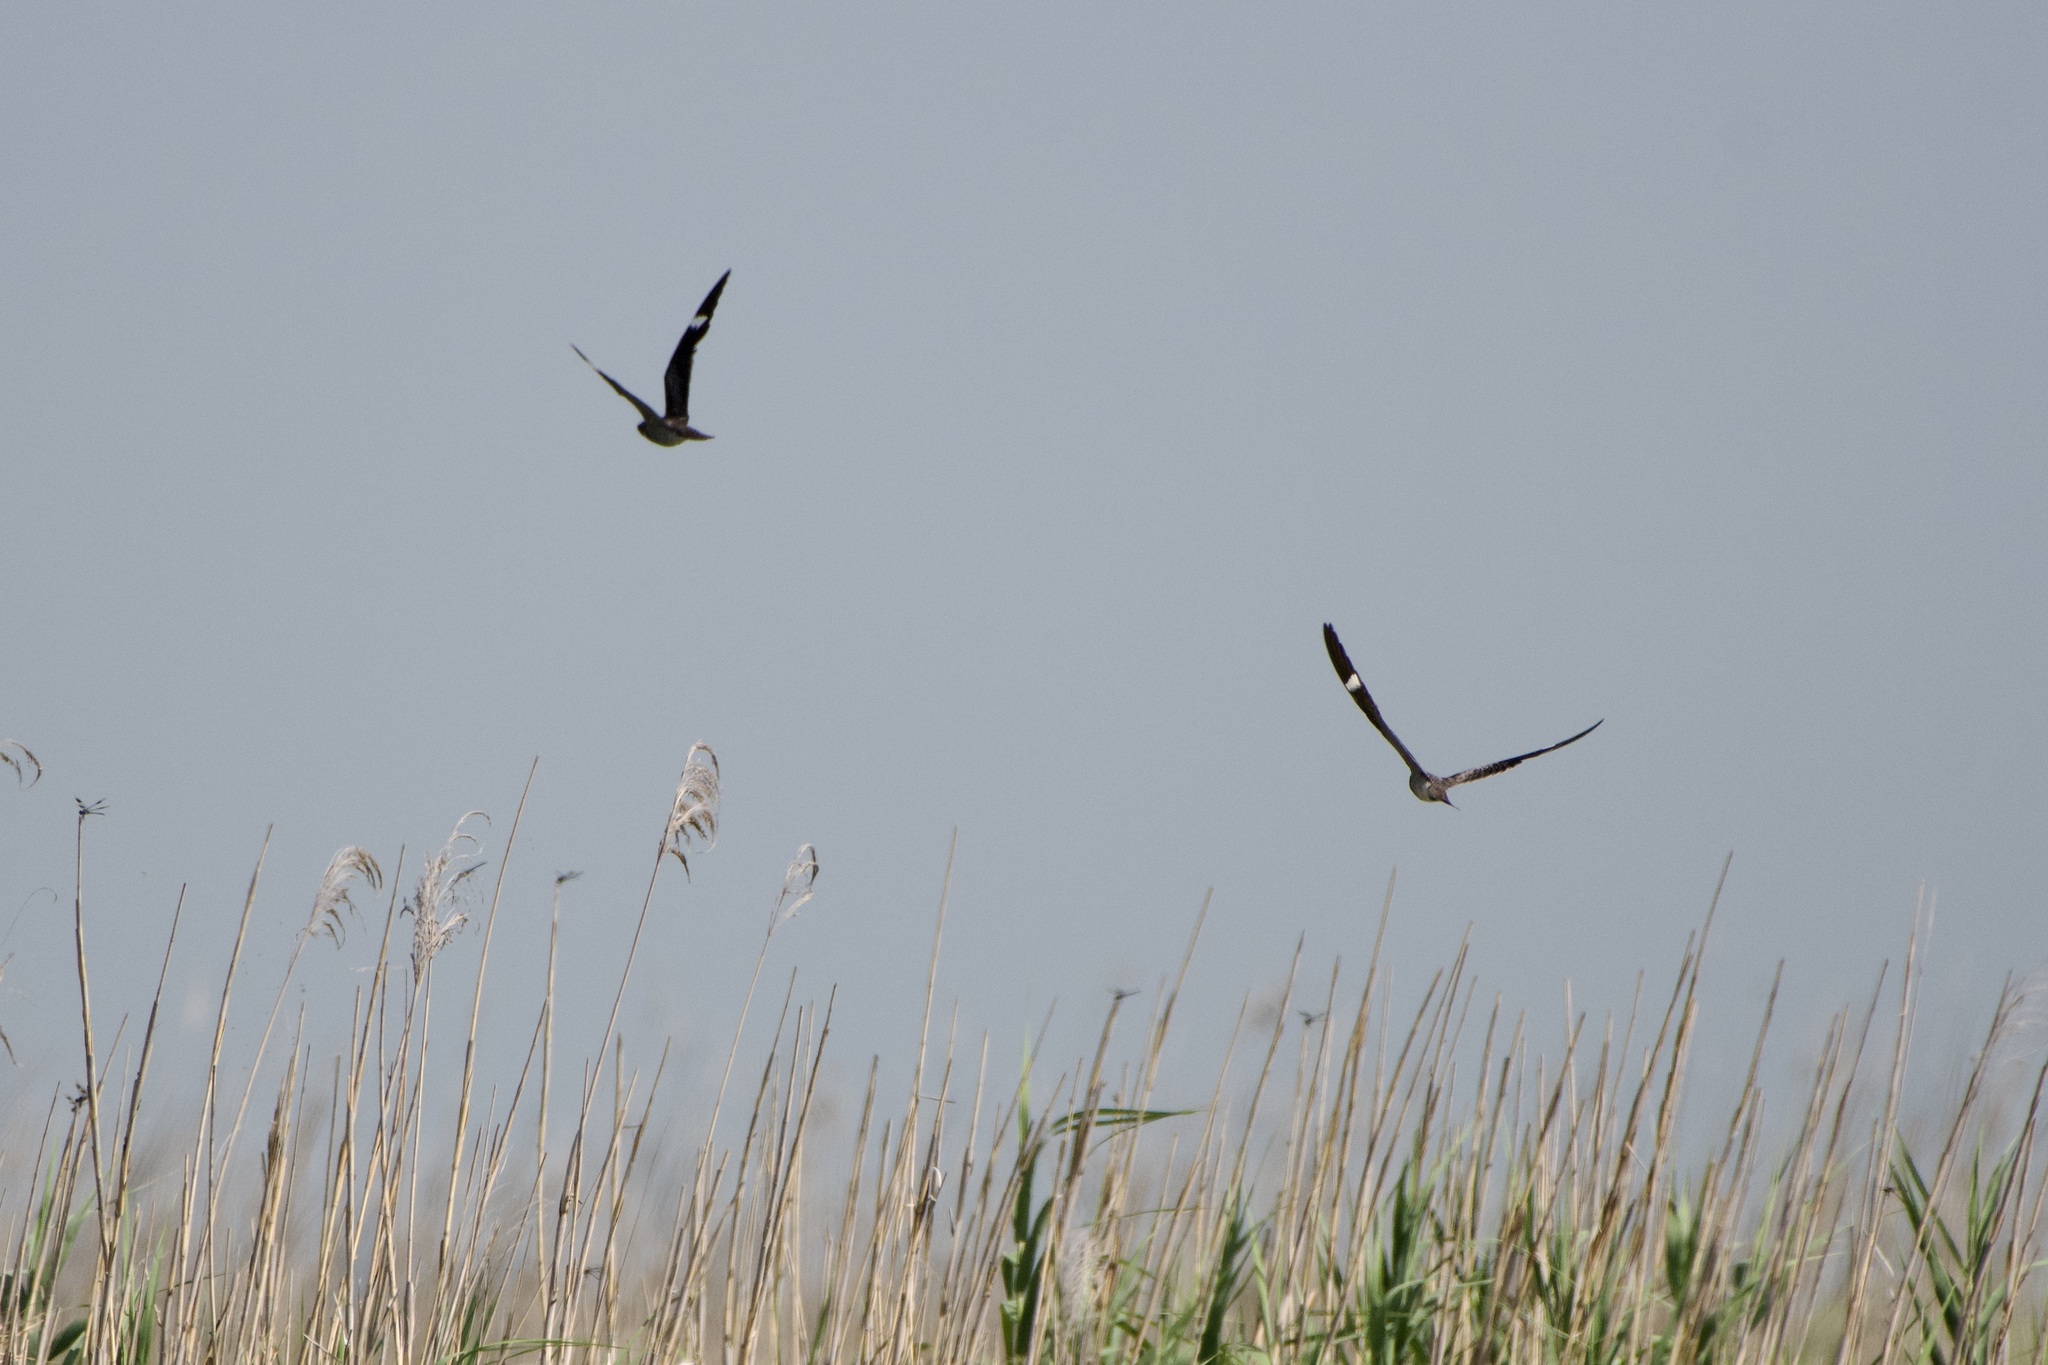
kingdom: Animalia
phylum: Chordata
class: Aves
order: Caprimulgiformes
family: Caprimulgidae
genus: Chordeiles
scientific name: Chordeiles minor
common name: Common nighthawk
